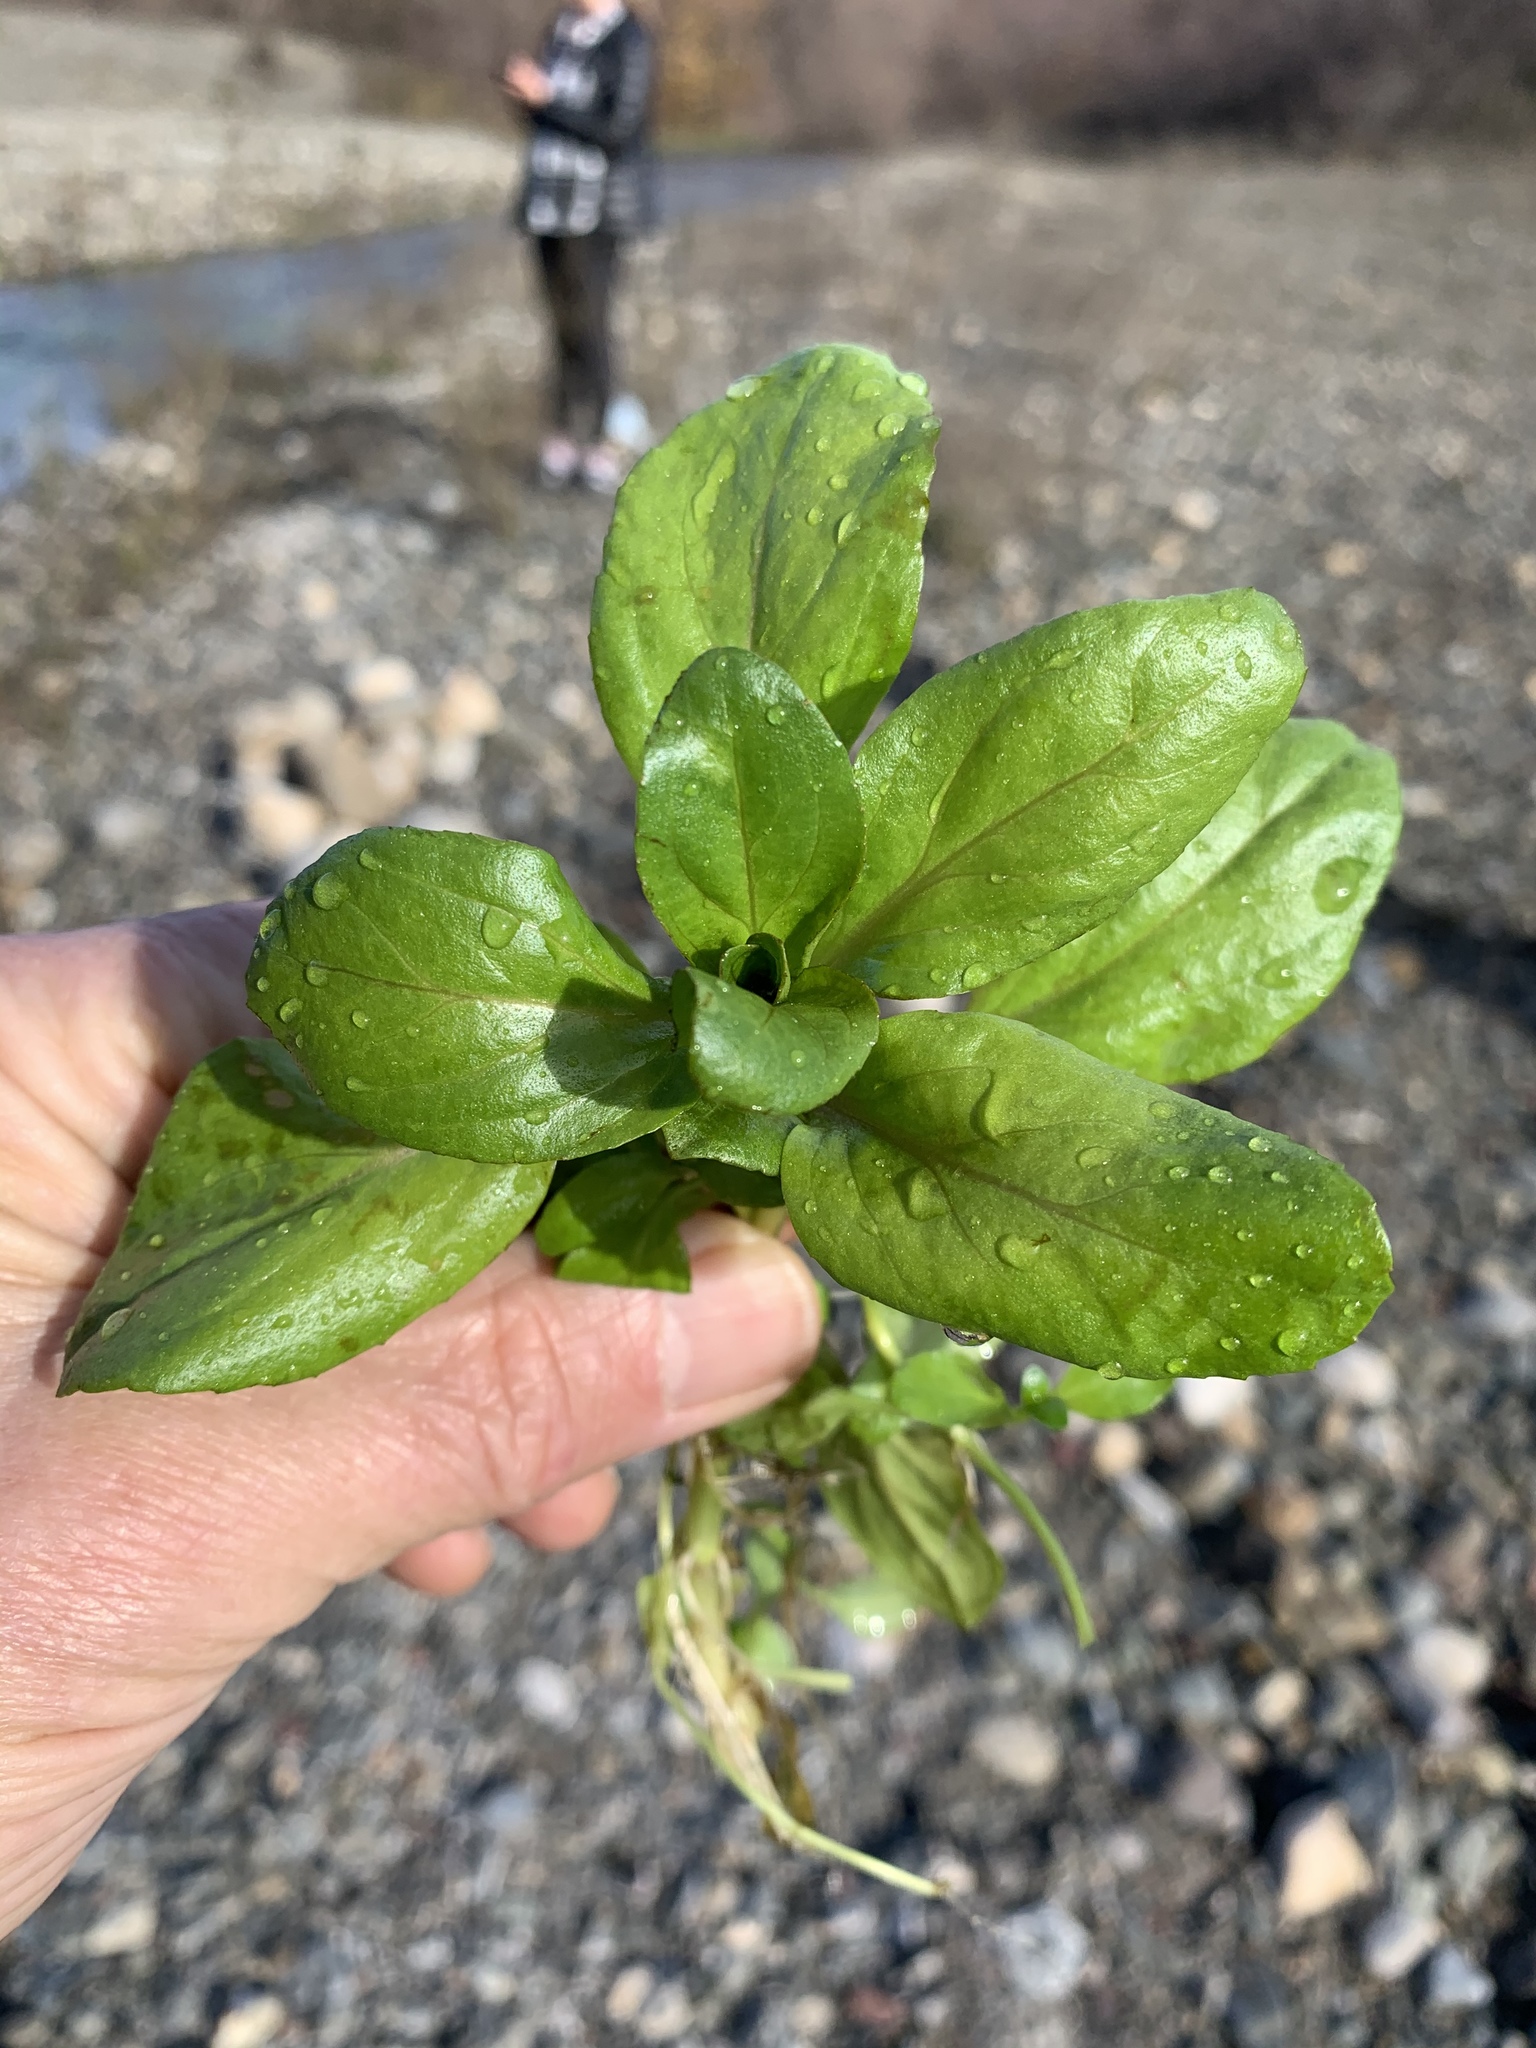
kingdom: Plantae
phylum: Tracheophyta
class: Magnoliopsida
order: Lamiales
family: Plantaginaceae
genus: Veronica
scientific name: Veronica anagallis-aquatica
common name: Water speedwell
